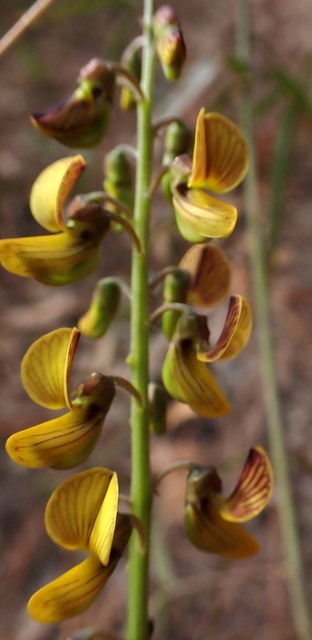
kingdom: Plantae
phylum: Tracheophyta
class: Magnoliopsida
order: Fabales
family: Fabaceae
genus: Crotalaria
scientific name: Crotalaria pallida
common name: Smooth rattlebox
